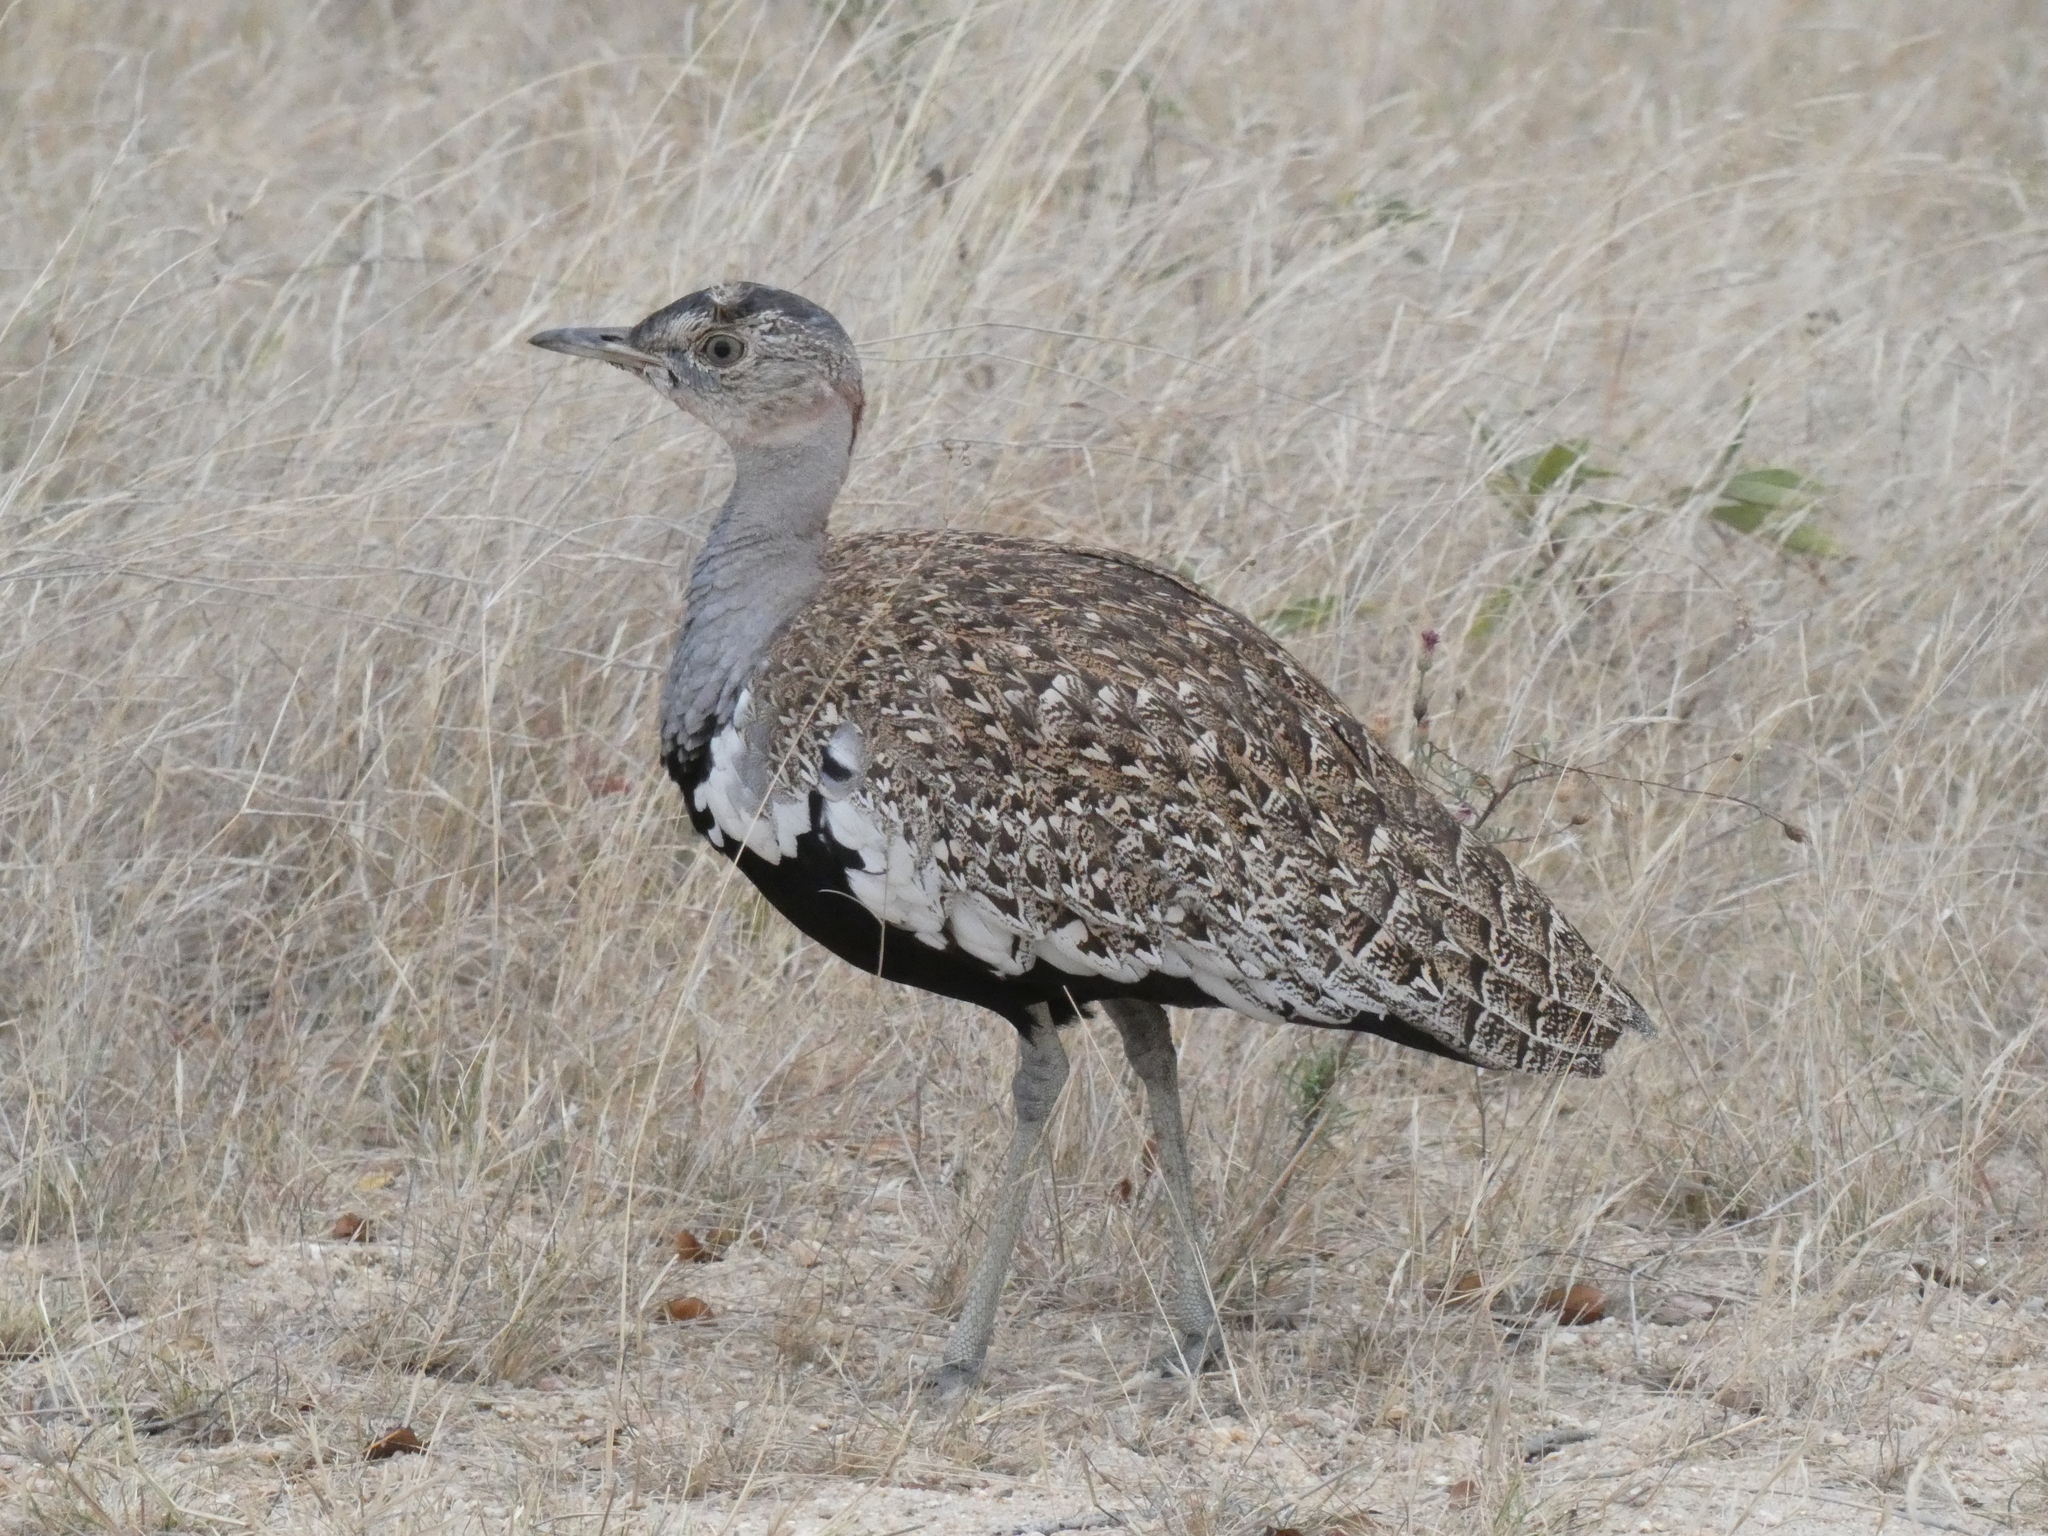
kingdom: Animalia
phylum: Chordata
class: Aves
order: Otidiformes
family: Otididae
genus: Lophotis
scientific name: Lophotis ruficrista
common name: Red-crested korhaan
